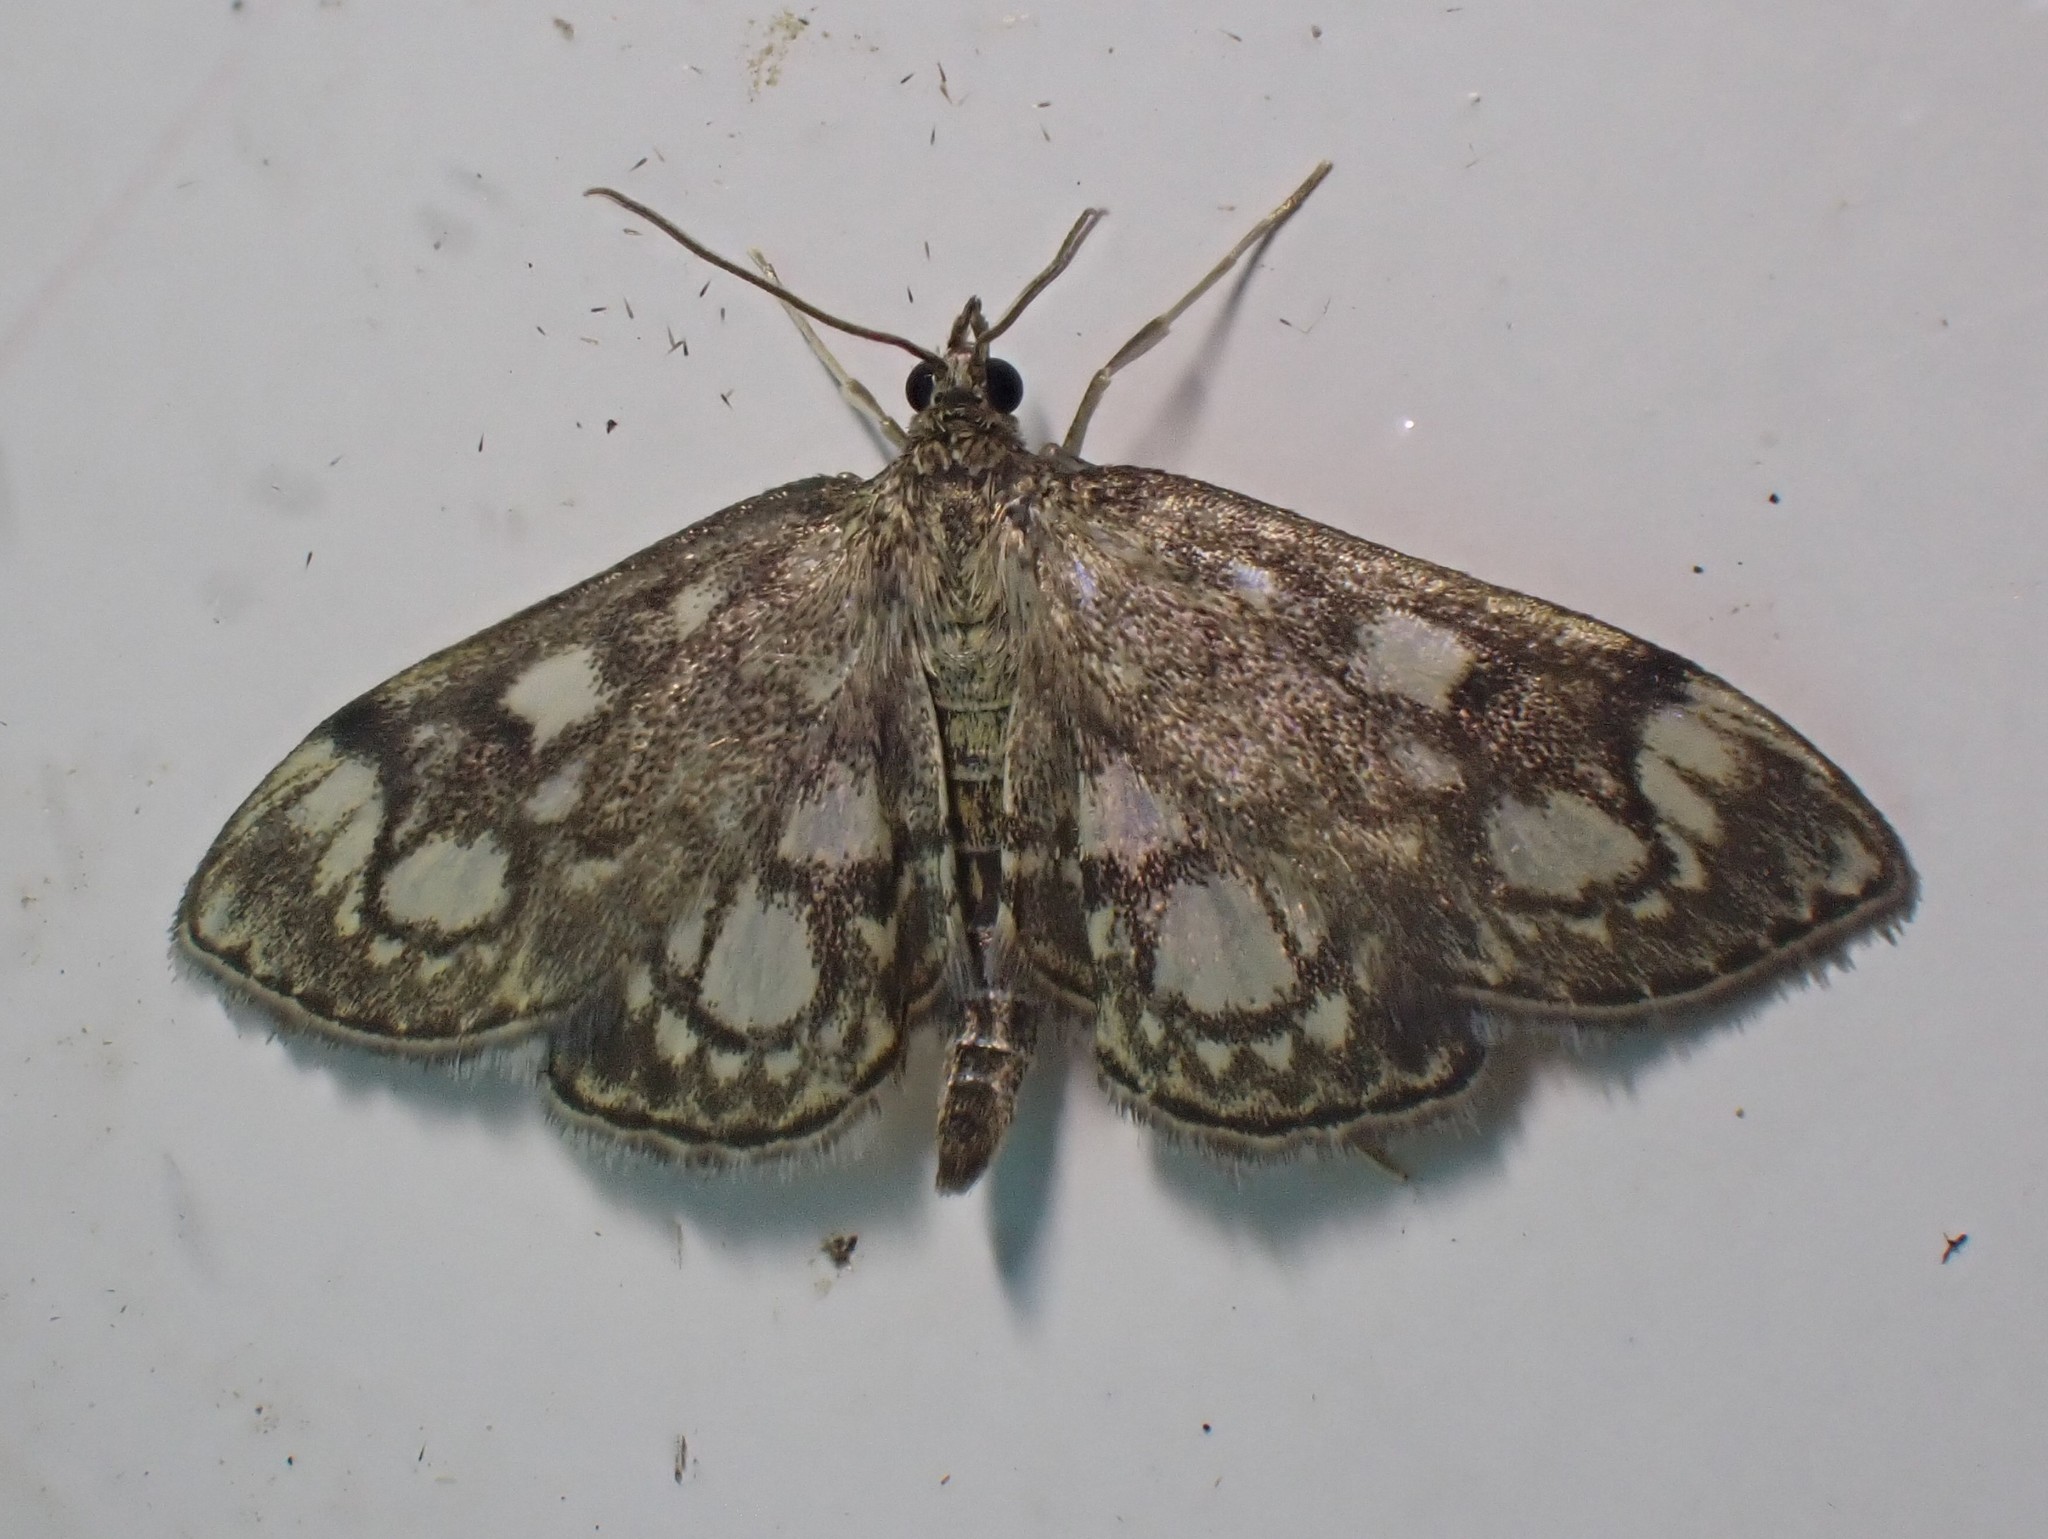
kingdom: Animalia
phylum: Arthropoda
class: Insecta
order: Lepidoptera
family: Crambidae
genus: Anania
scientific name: Anania coronata
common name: Elder pearl
